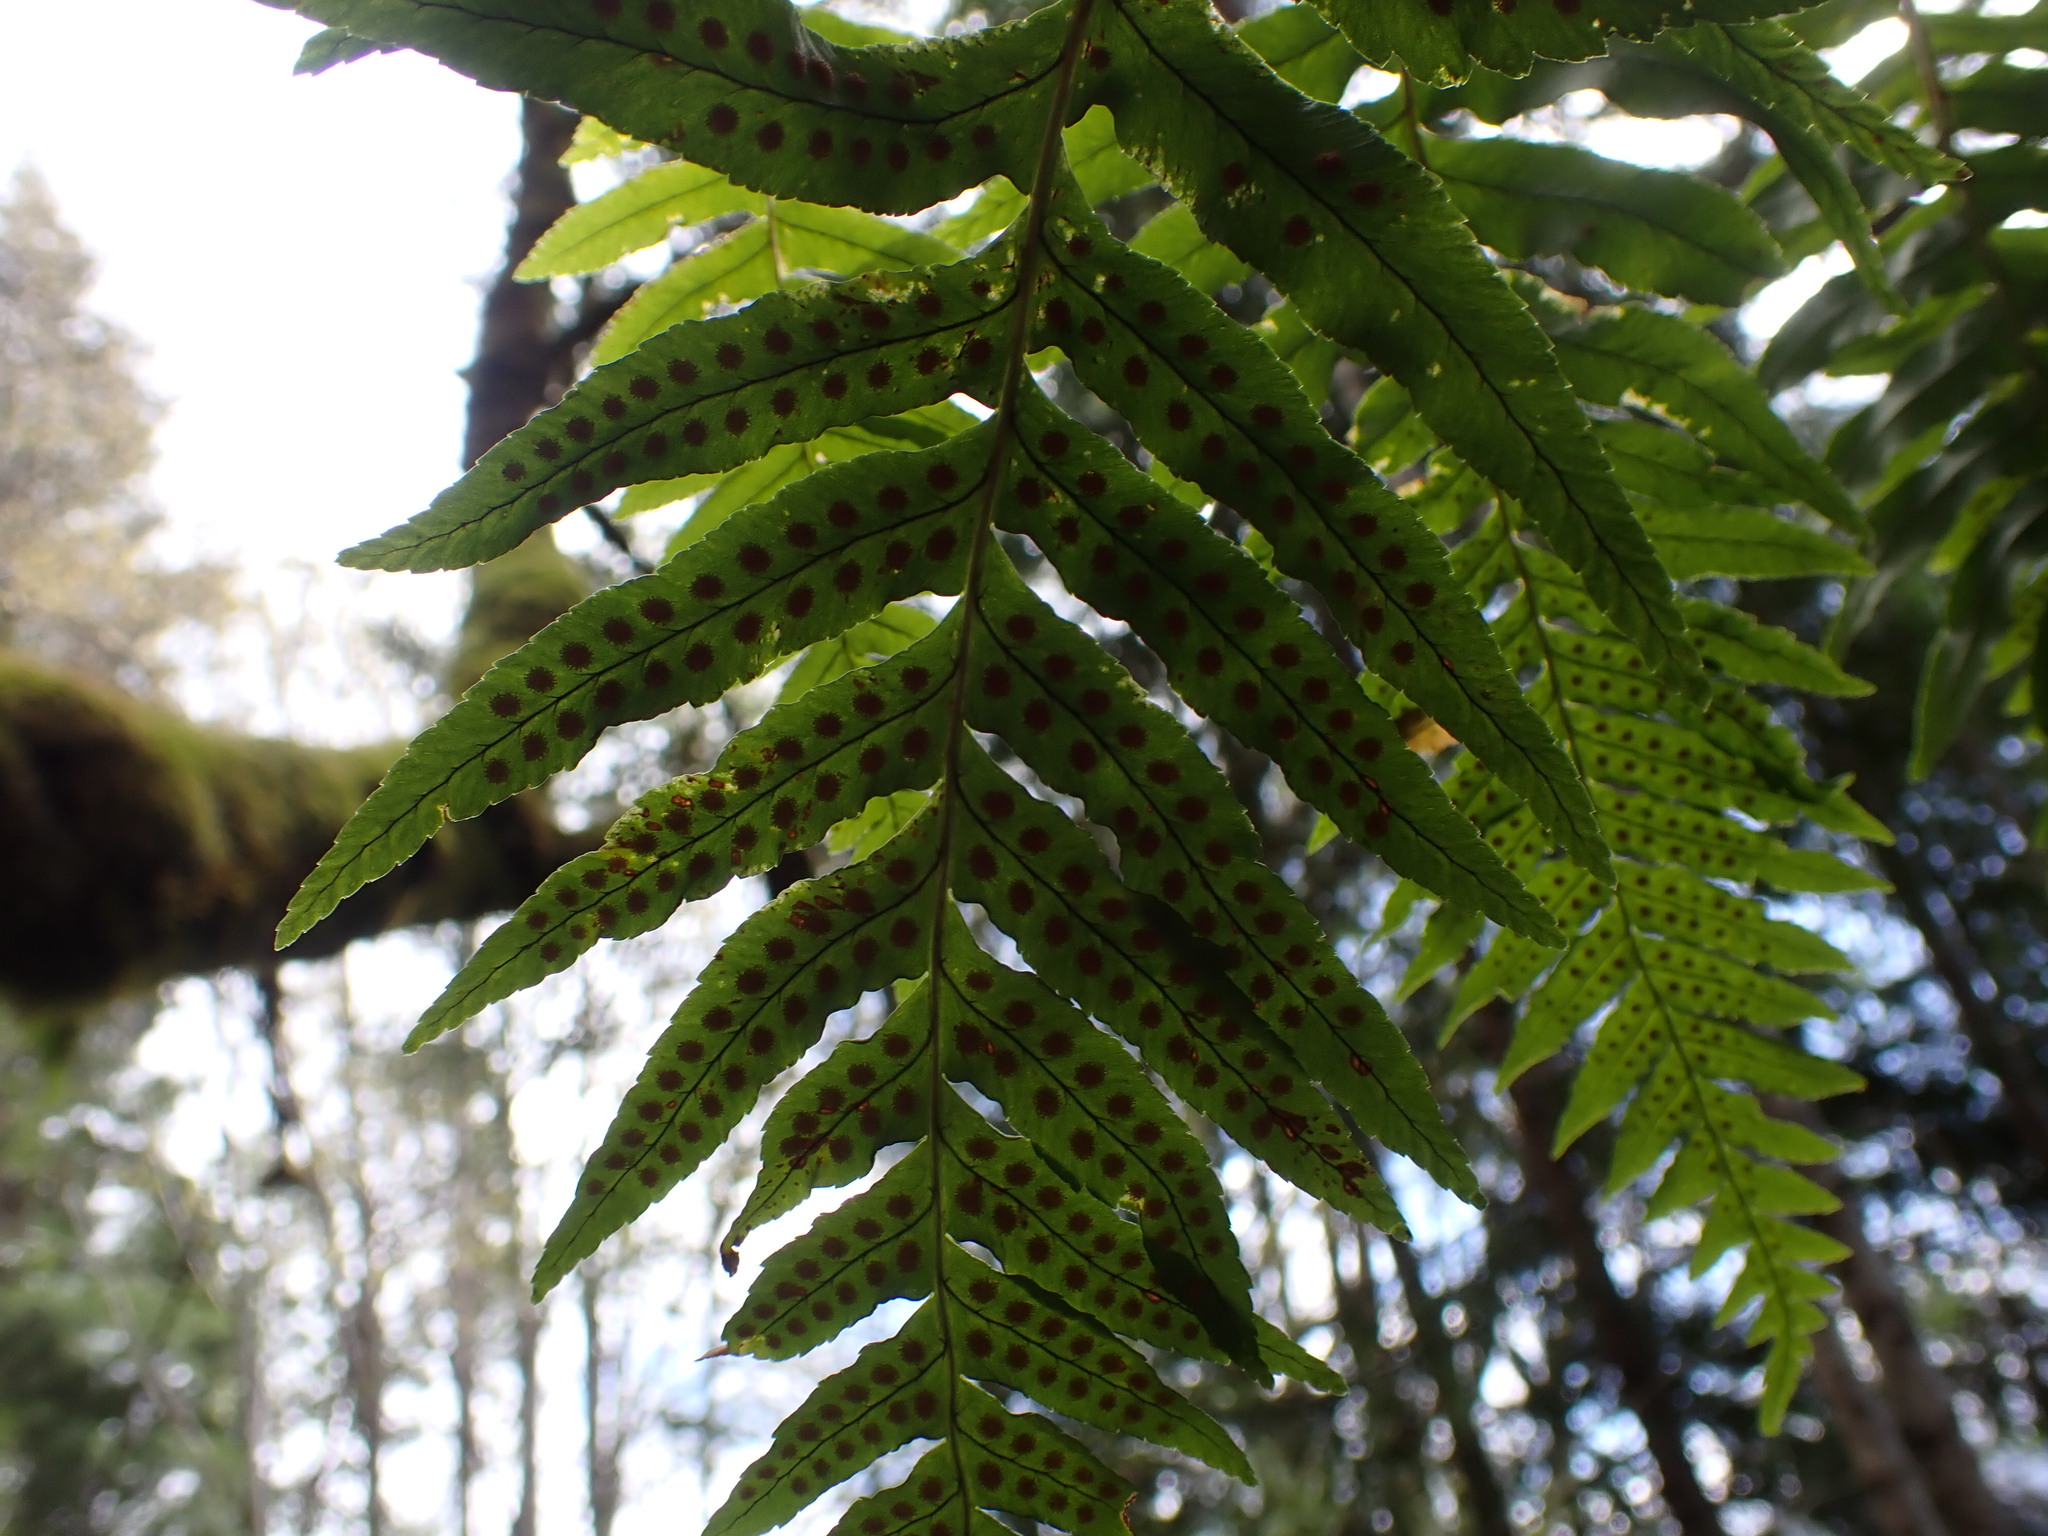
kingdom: Plantae
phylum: Tracheophyta
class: Polypodiopsida
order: Polypodiales
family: Polypodiaceae
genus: Polypodium
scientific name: Polypodium glycyrrhiza
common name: Licorice fern
